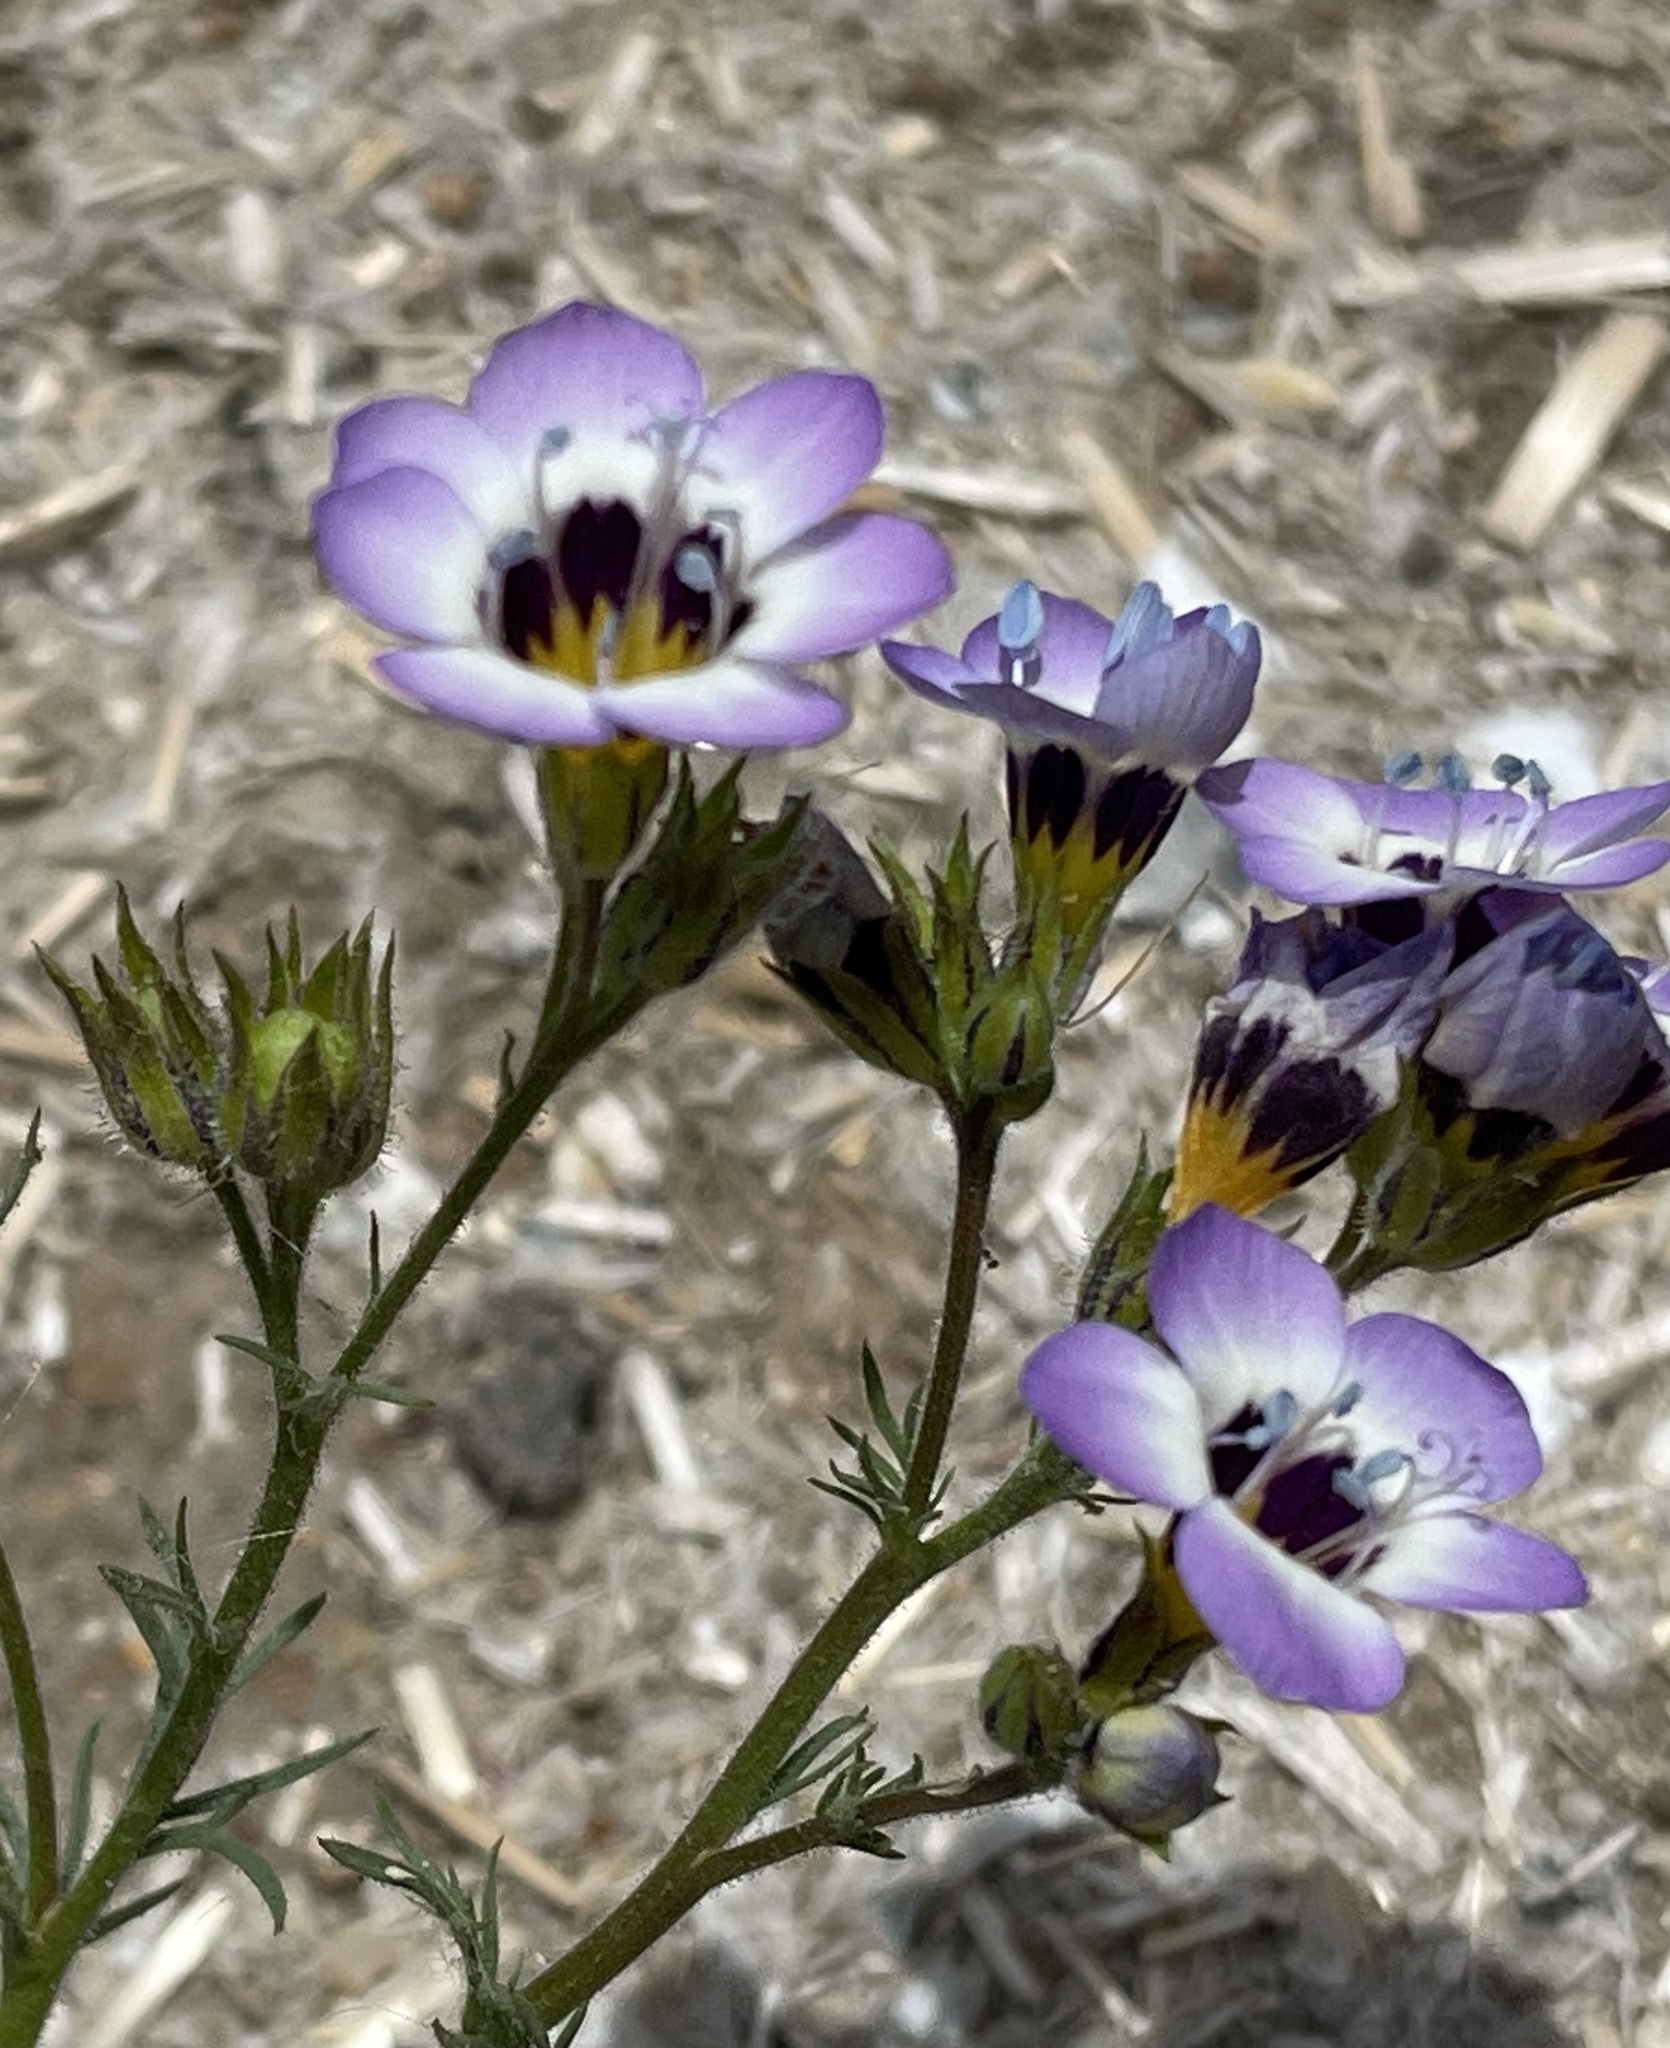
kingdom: Plantae
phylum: Tracheophyta
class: Magnoliopsida
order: Ericales
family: Polemoniaceae
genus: Gilia
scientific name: Gilia tricolor
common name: Bird's-eyes
